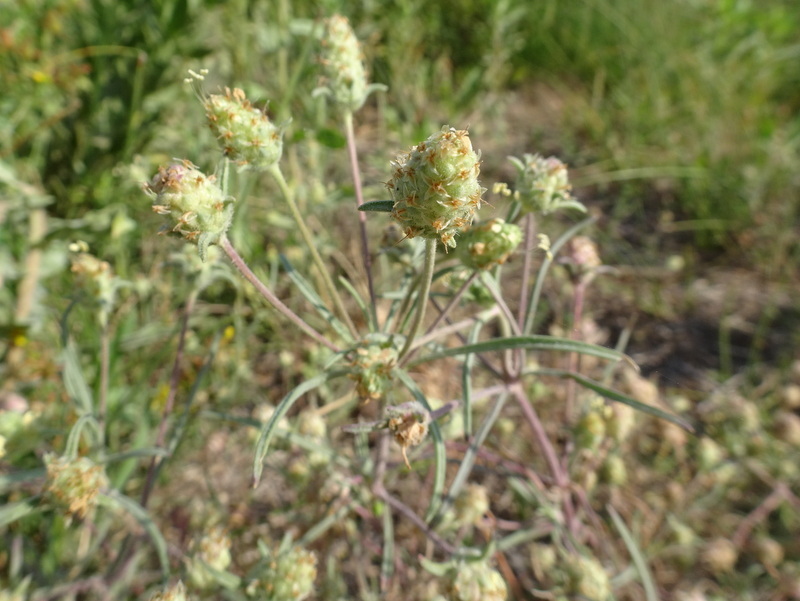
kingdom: Plantae
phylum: Tracheophyta
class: Magnoliopsida
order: Lamiales
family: Plantaginaceae
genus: Plantago
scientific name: Plantago arenaria
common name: Branched plantain
